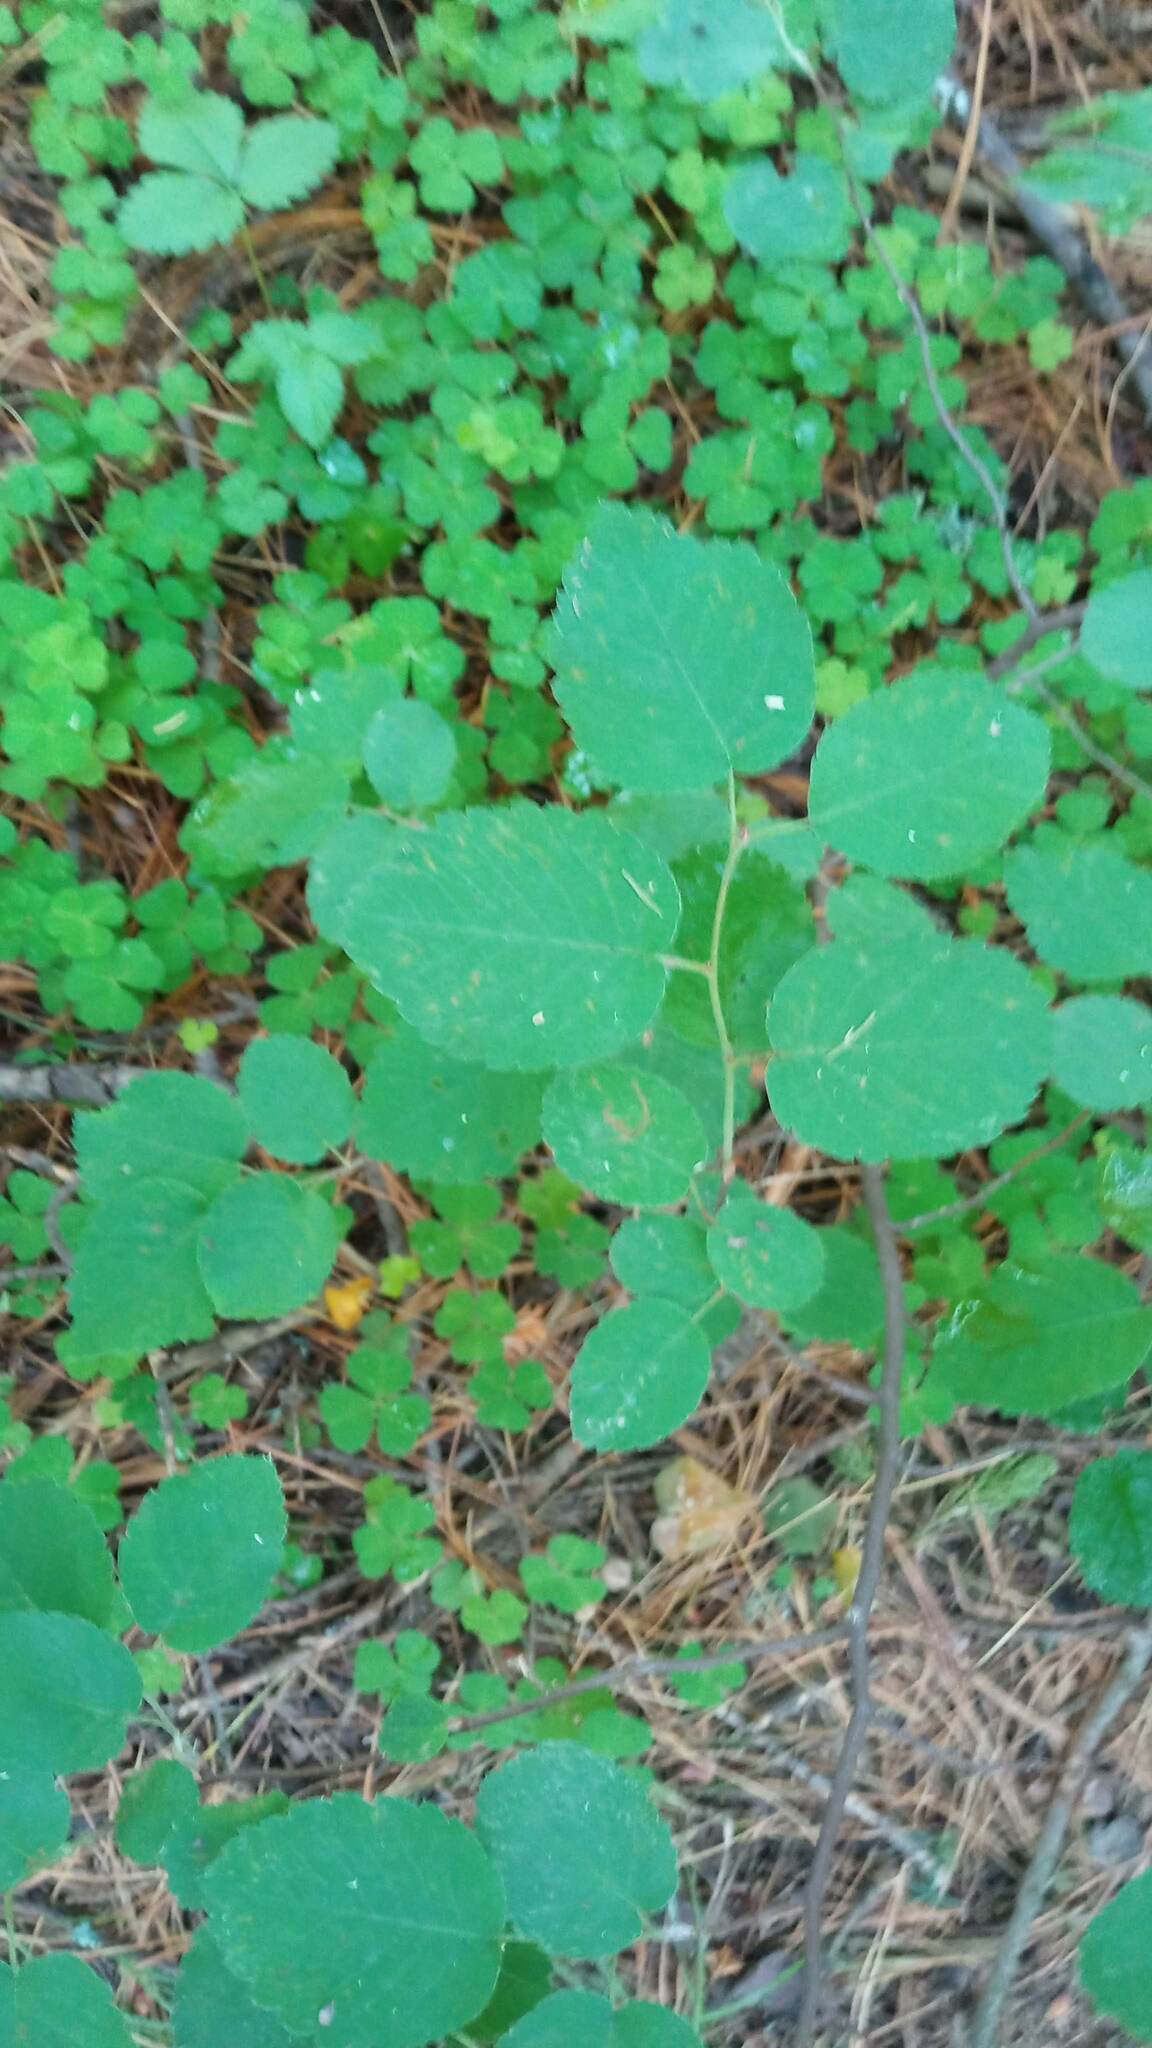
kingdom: Plantae
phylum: Tracheophyta
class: Magnoliopsida
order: Rosales
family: Rosaceae
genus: Amelanchier
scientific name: Amelanchier alnifolia
